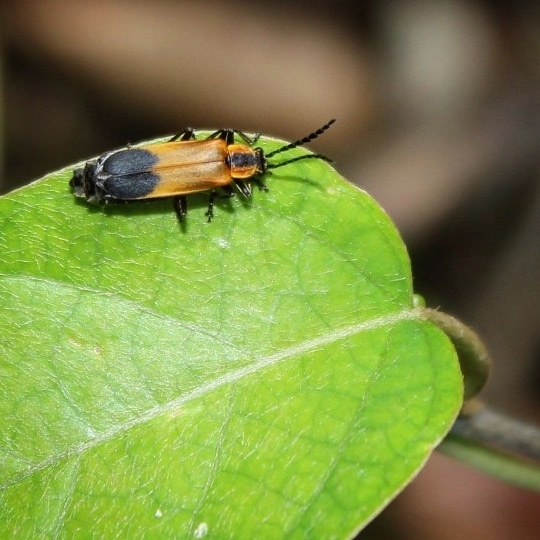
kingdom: Animalia
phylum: Arthropoda
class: Insecta
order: Coleoptera
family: Cantharidae
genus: Microdaiphron
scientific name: Microdaiphron
